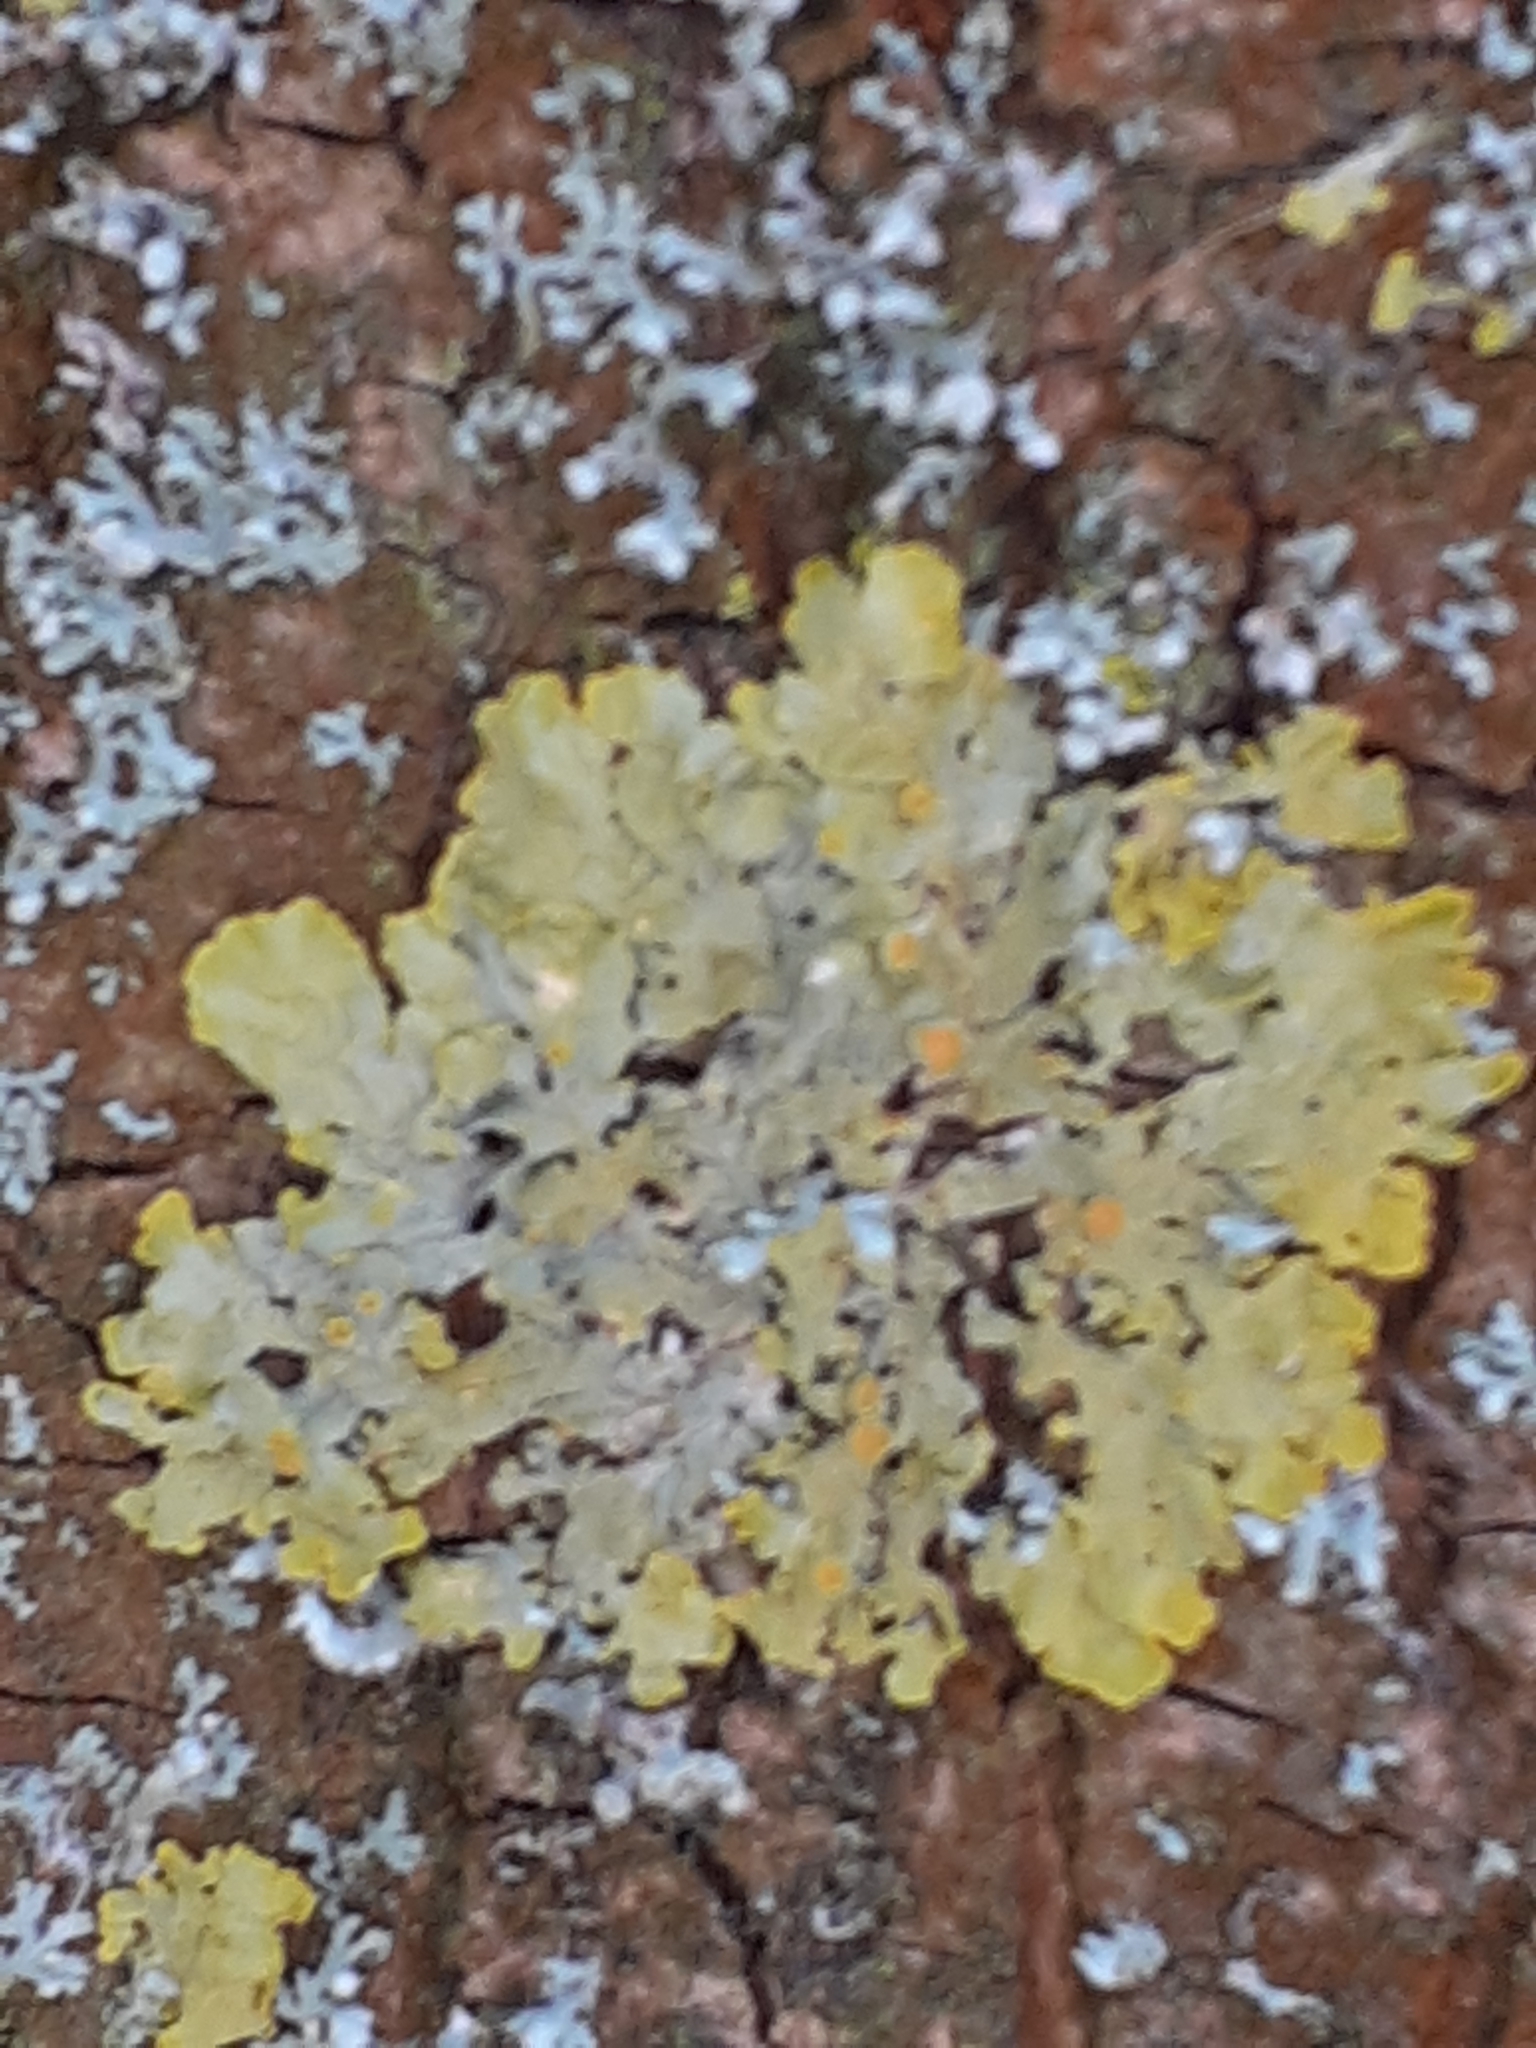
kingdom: Fungi
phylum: Ascomycota
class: Lecanoromycetes
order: Teloschistales
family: Teloschistaceae
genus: Xanthoria
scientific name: Xanthoria parietina
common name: Common orange lichen
